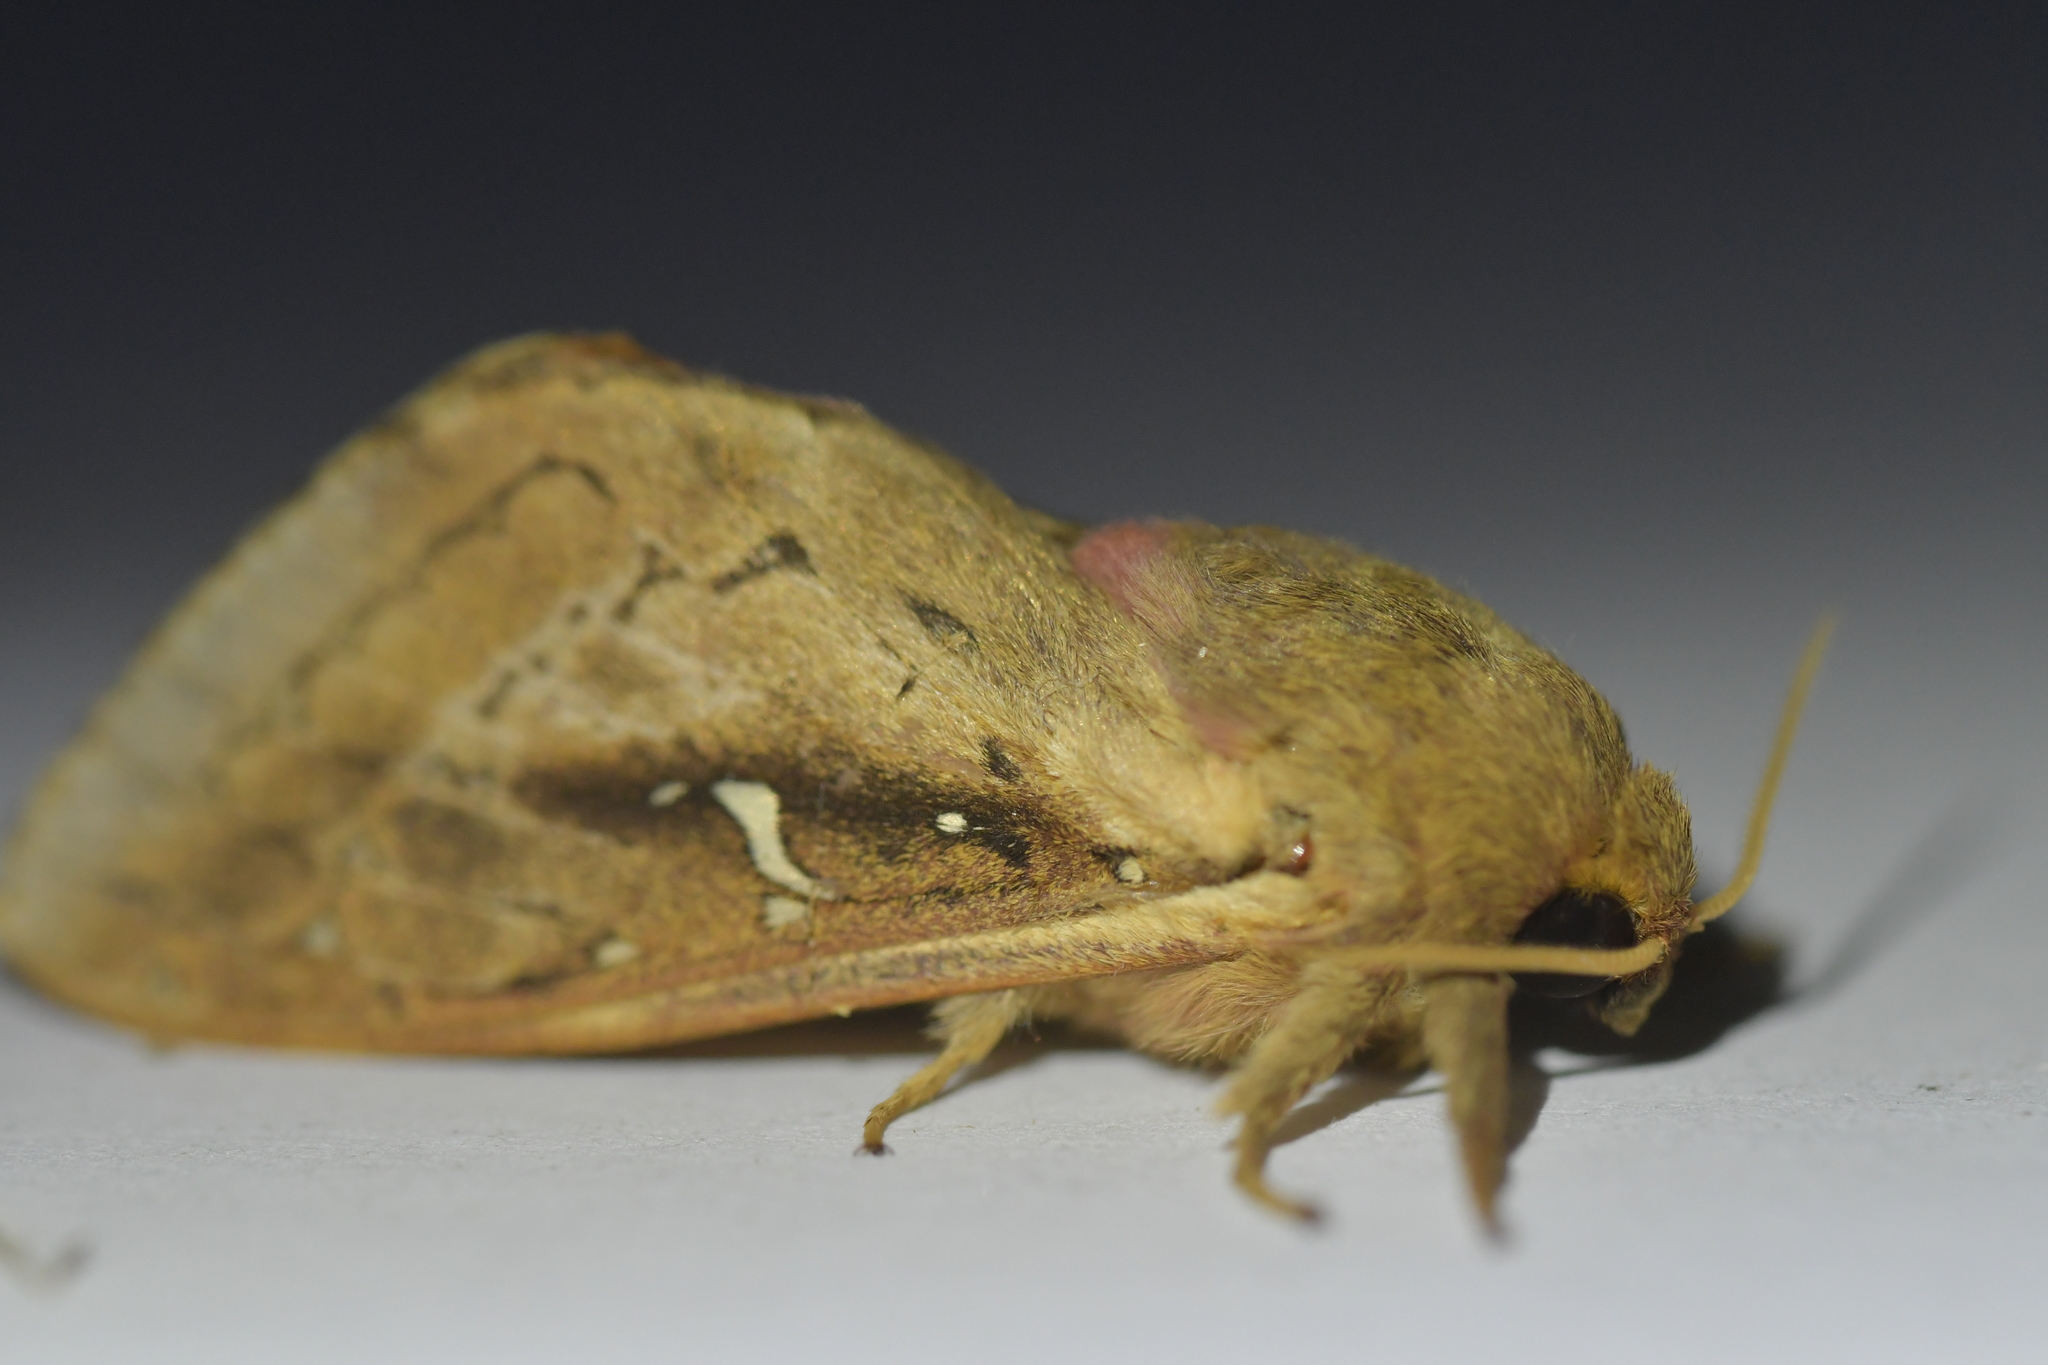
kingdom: Animalia
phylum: Arthropoda
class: Insecta
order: Lepidoptera
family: Hepialidae
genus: Wiseana
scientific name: Wiseana signata
